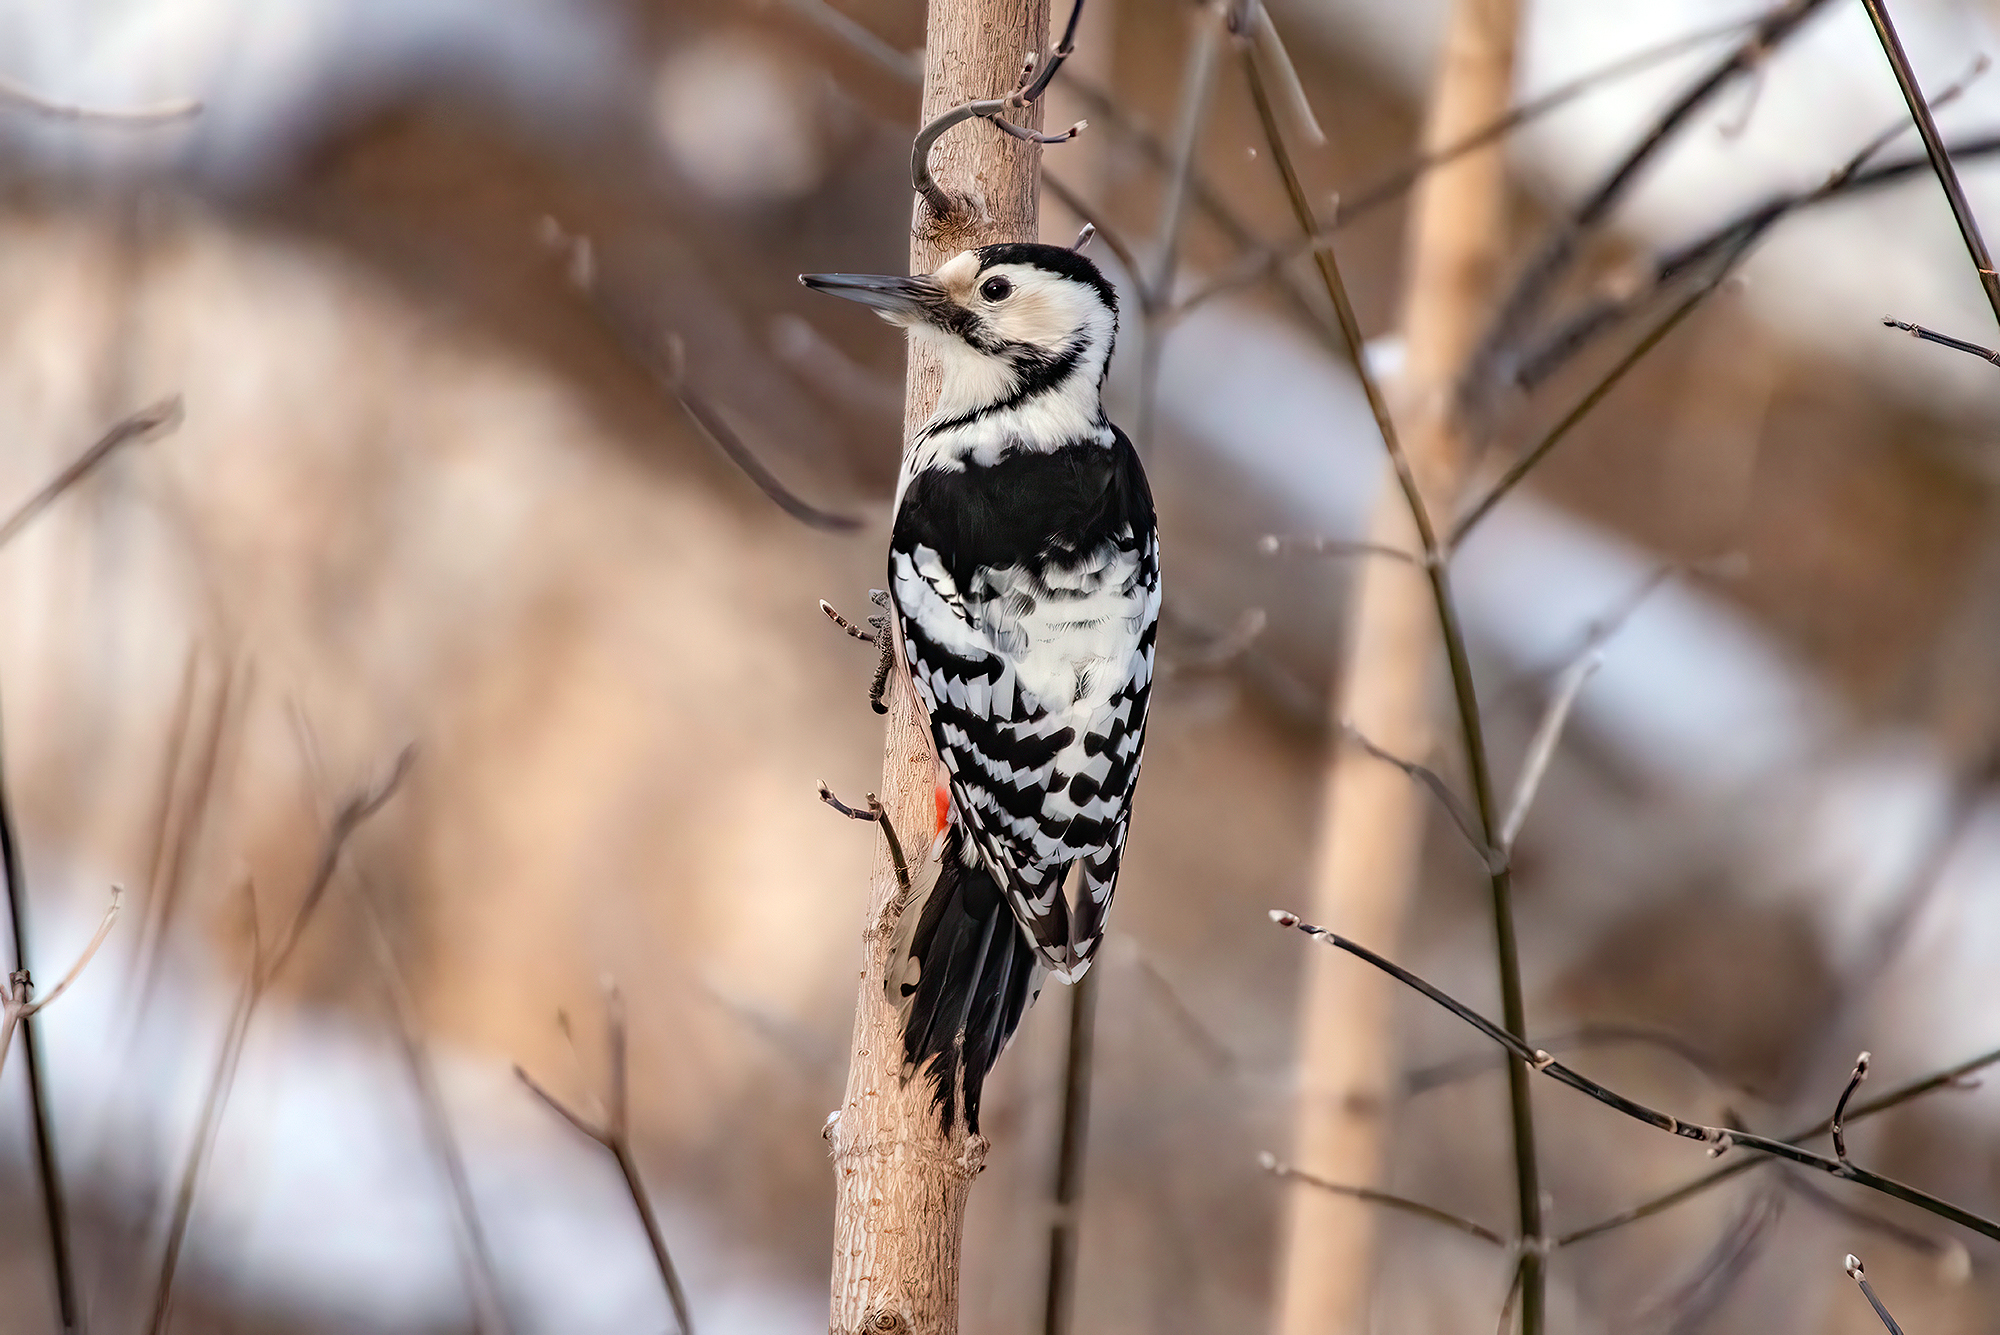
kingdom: Animalia
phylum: Chordata
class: Aves
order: Piciformes
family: Picidae
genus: Dendrocopos
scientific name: Dendrocopos leucotos
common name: White-backed woodpecker
